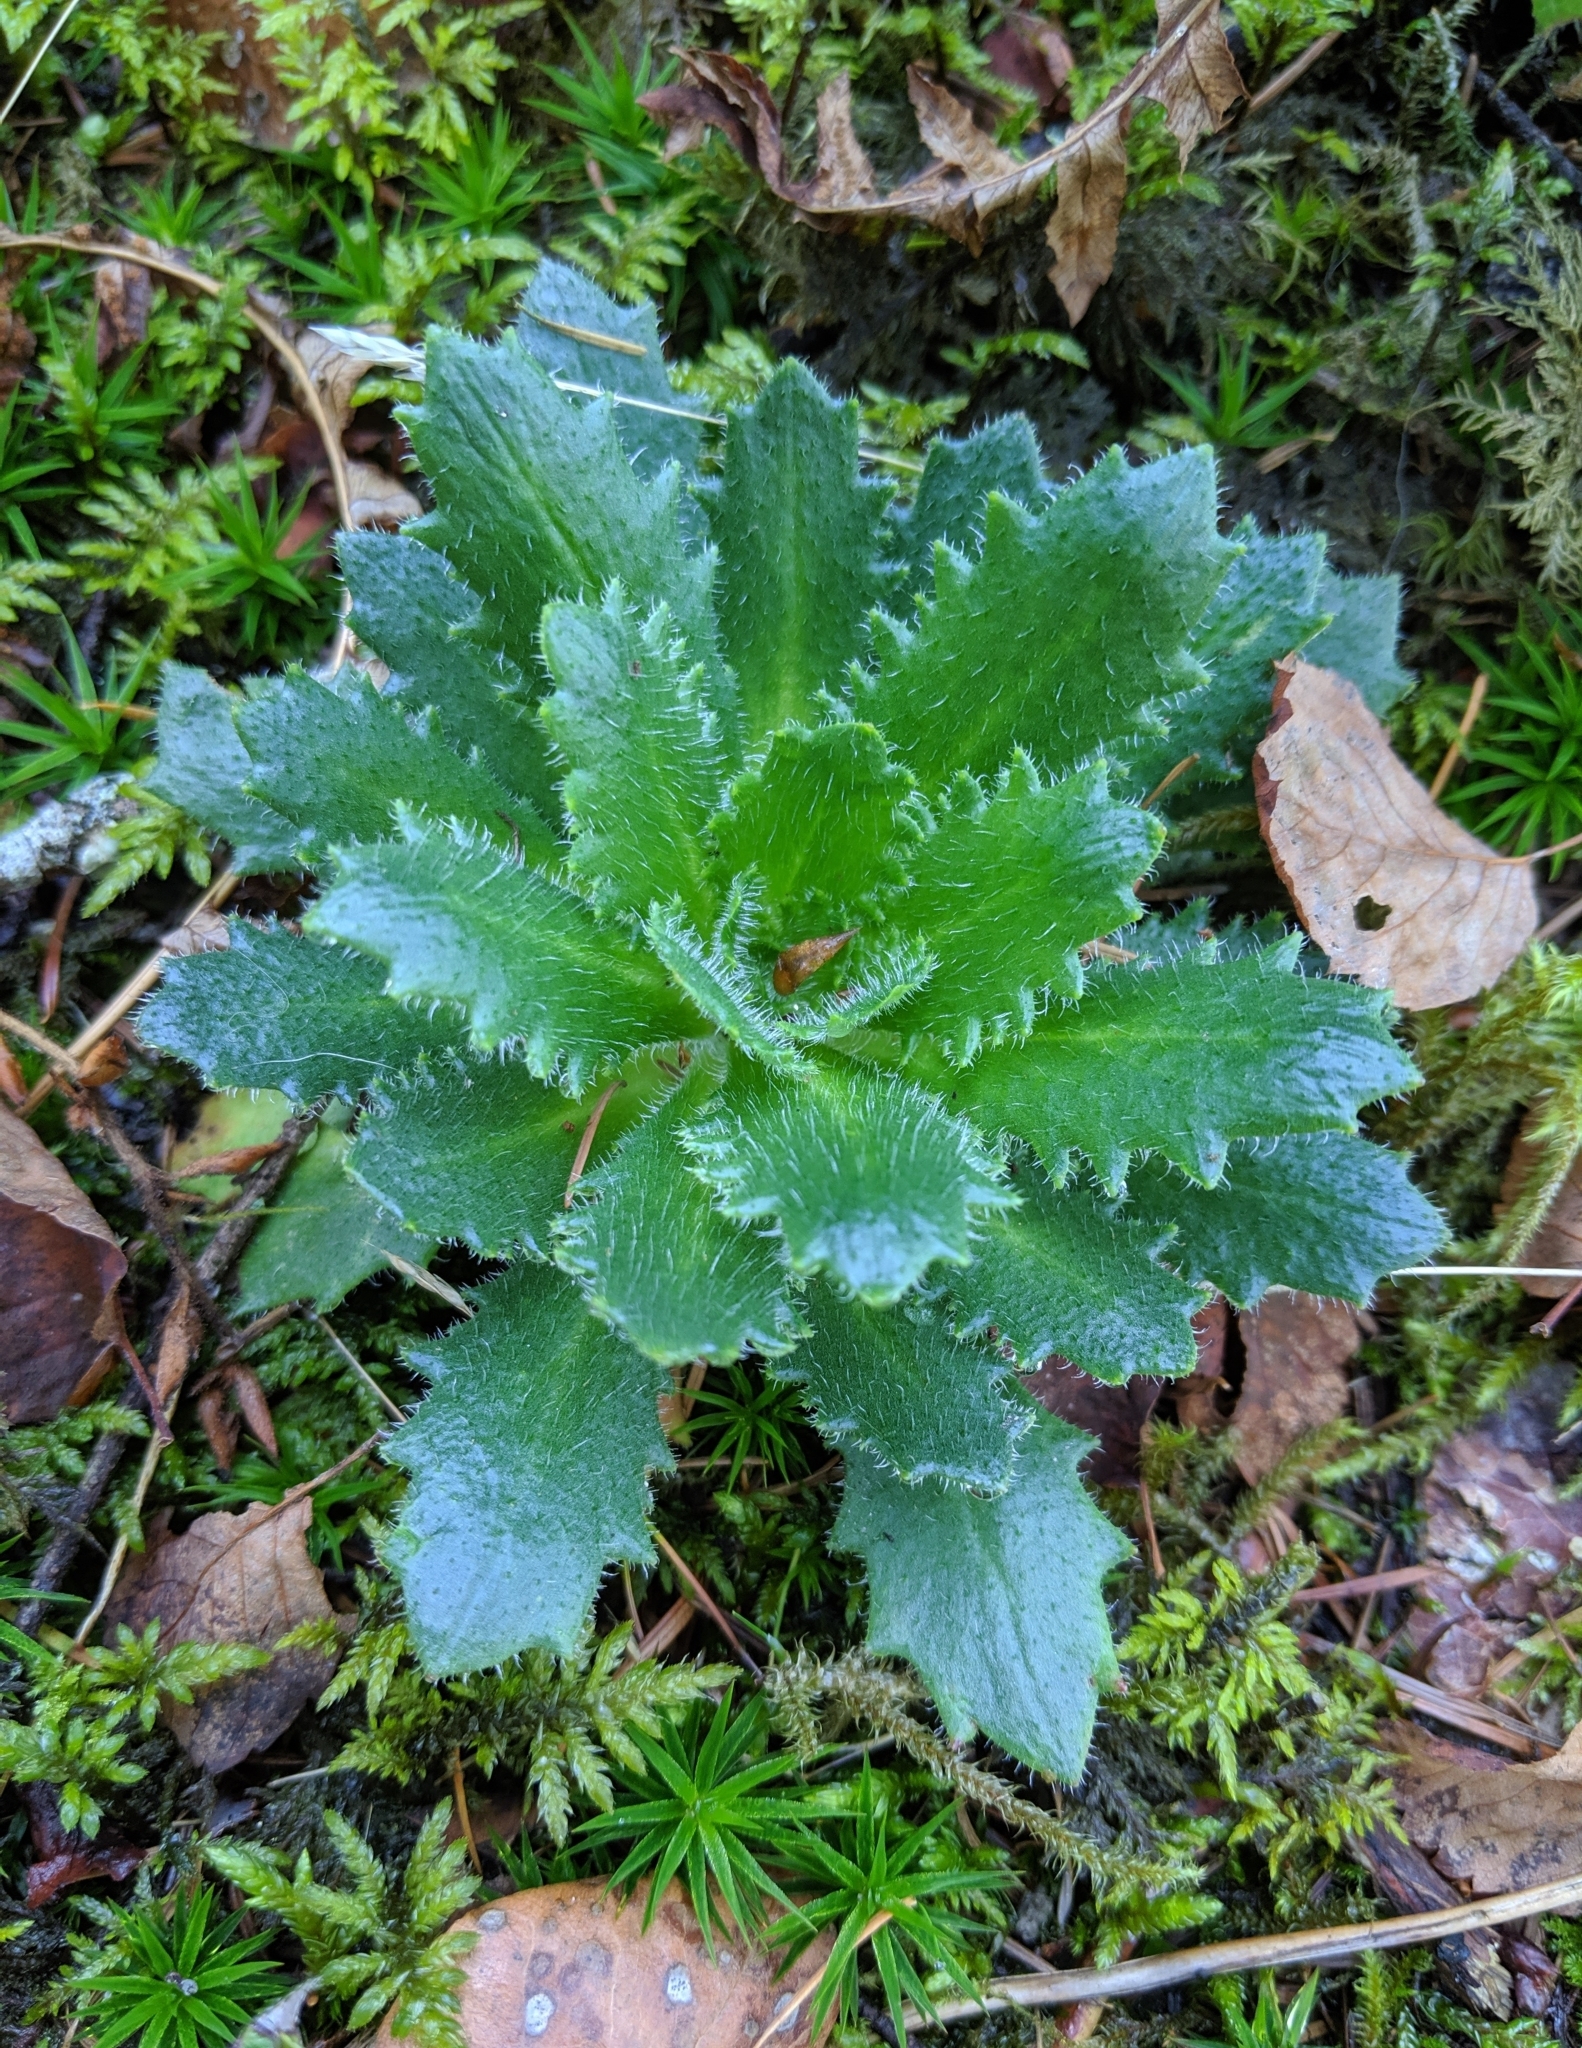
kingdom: Plantae
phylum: Tracheophyta
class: Magnoliopsida
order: Saxifragales
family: Saxifragaceae
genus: Micranthes
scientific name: Micranthes ferruginea
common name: Rusty saxifrage
